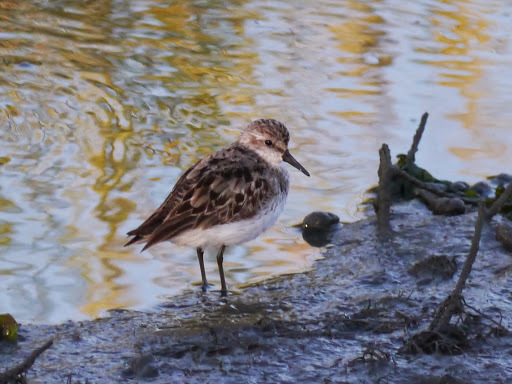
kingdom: Animalia
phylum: Chordata
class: Aves
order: Charadriiformes
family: Scolopacidae
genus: Calidris
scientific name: Calidris minutilla
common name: Least sandpiper
